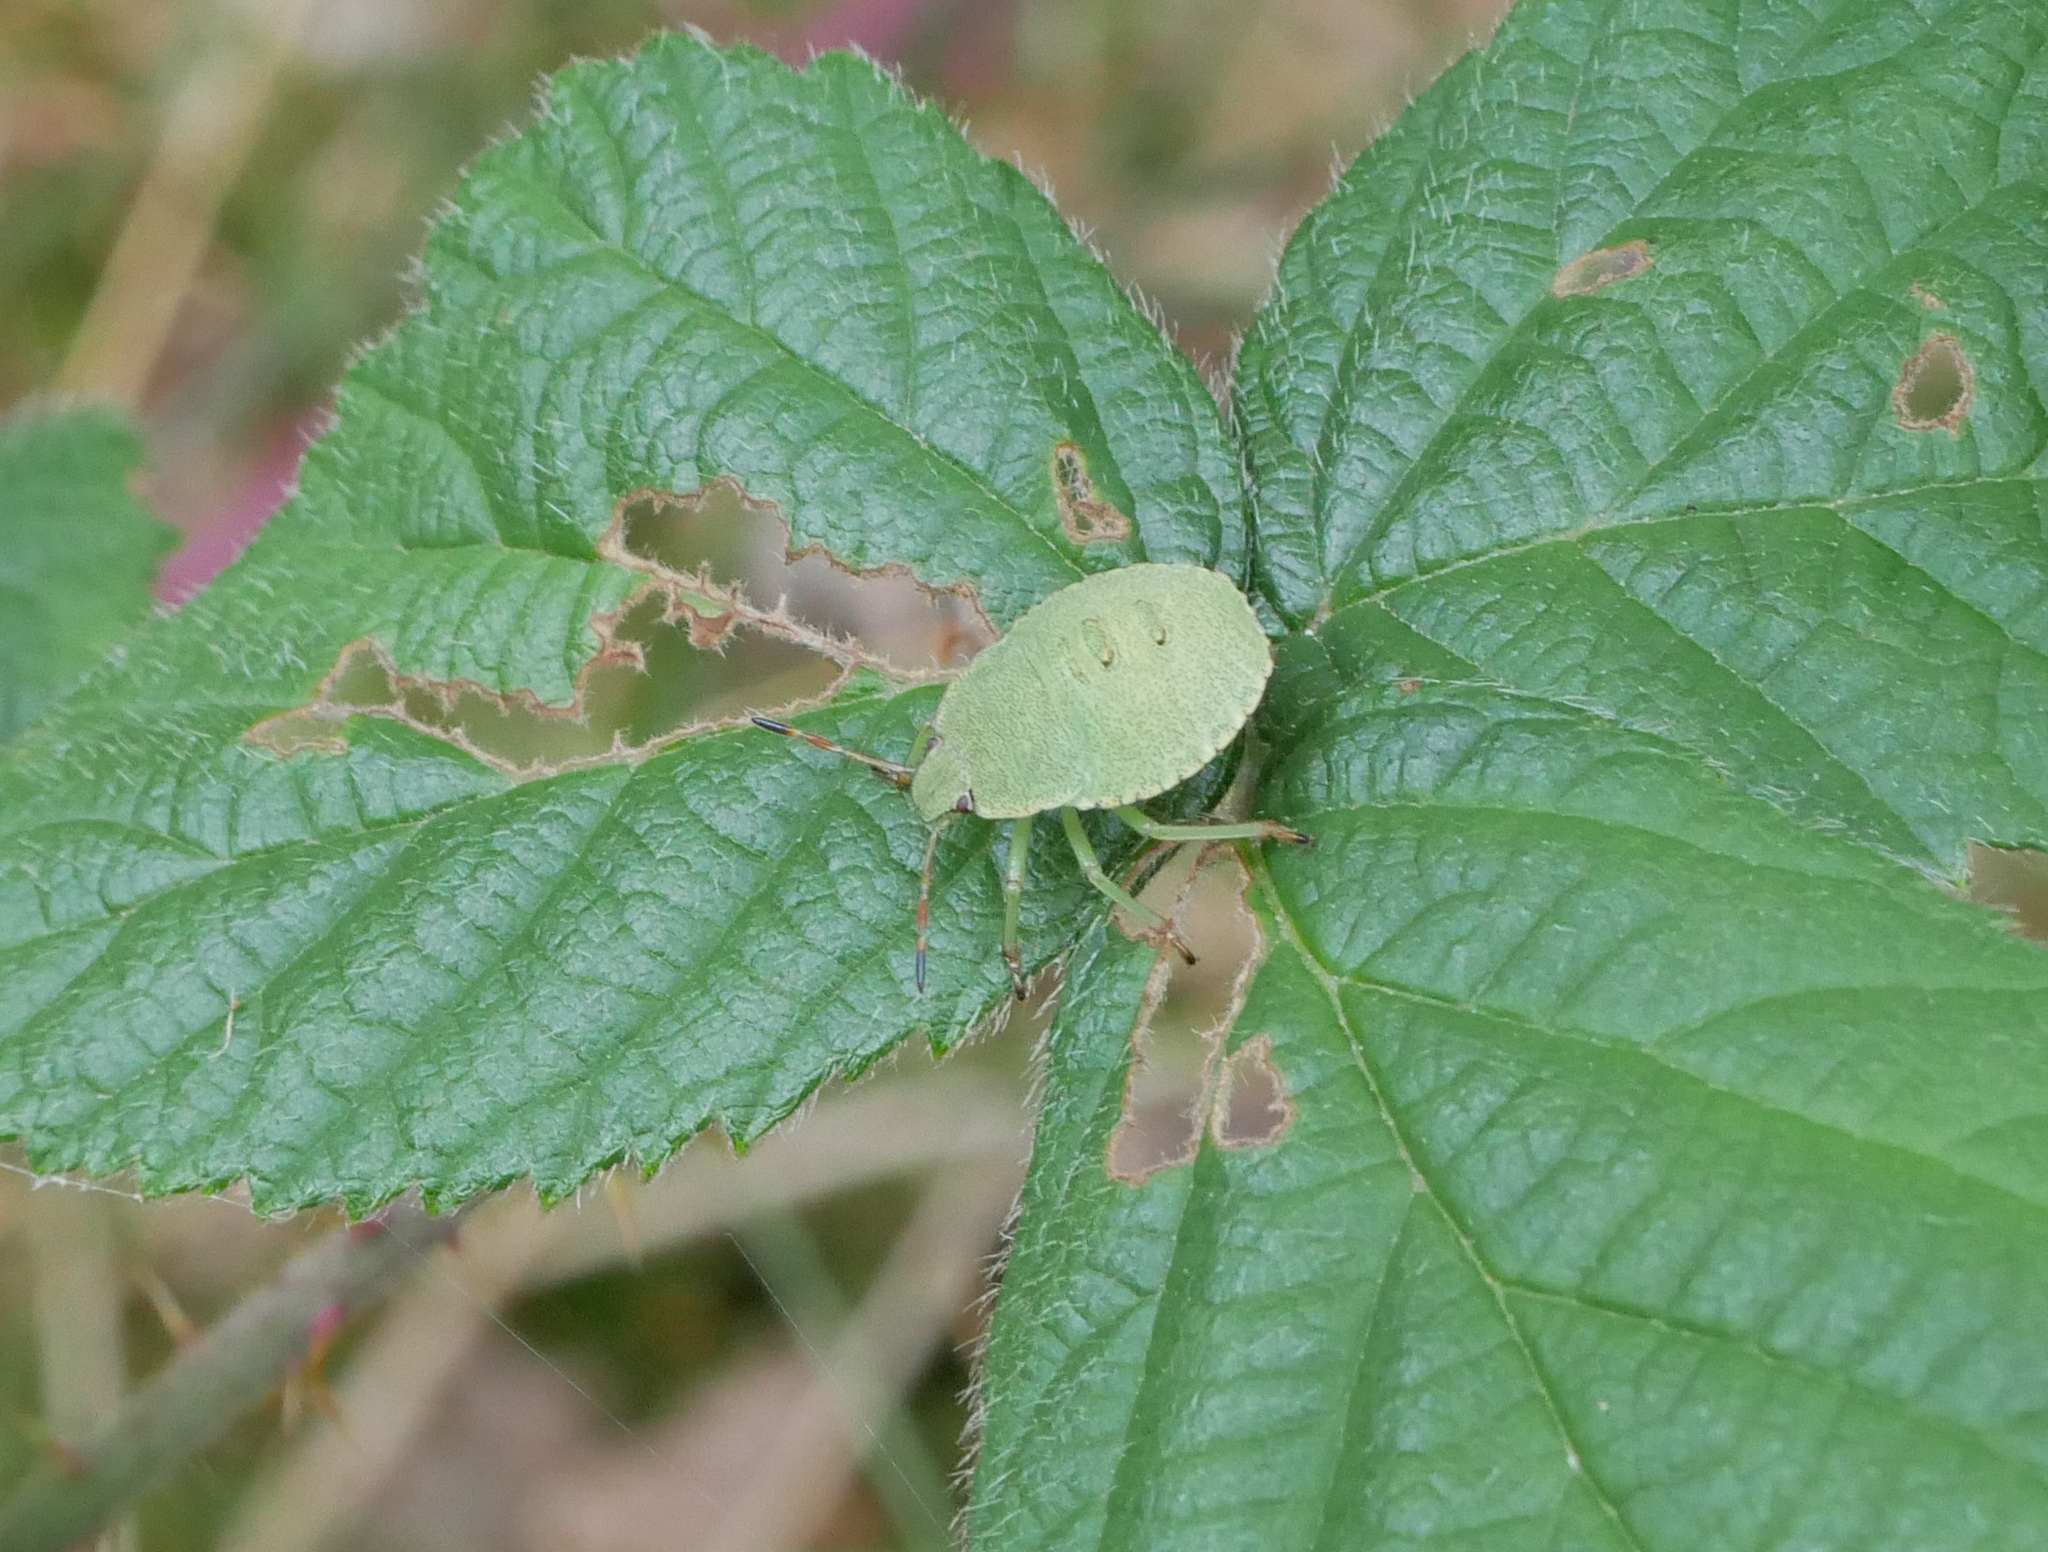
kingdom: Animalia
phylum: Arthropoda
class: Insecta
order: Hemiptera
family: Pentatomidae
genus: Palomena
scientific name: Palomena prasina
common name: Green shieldbug
